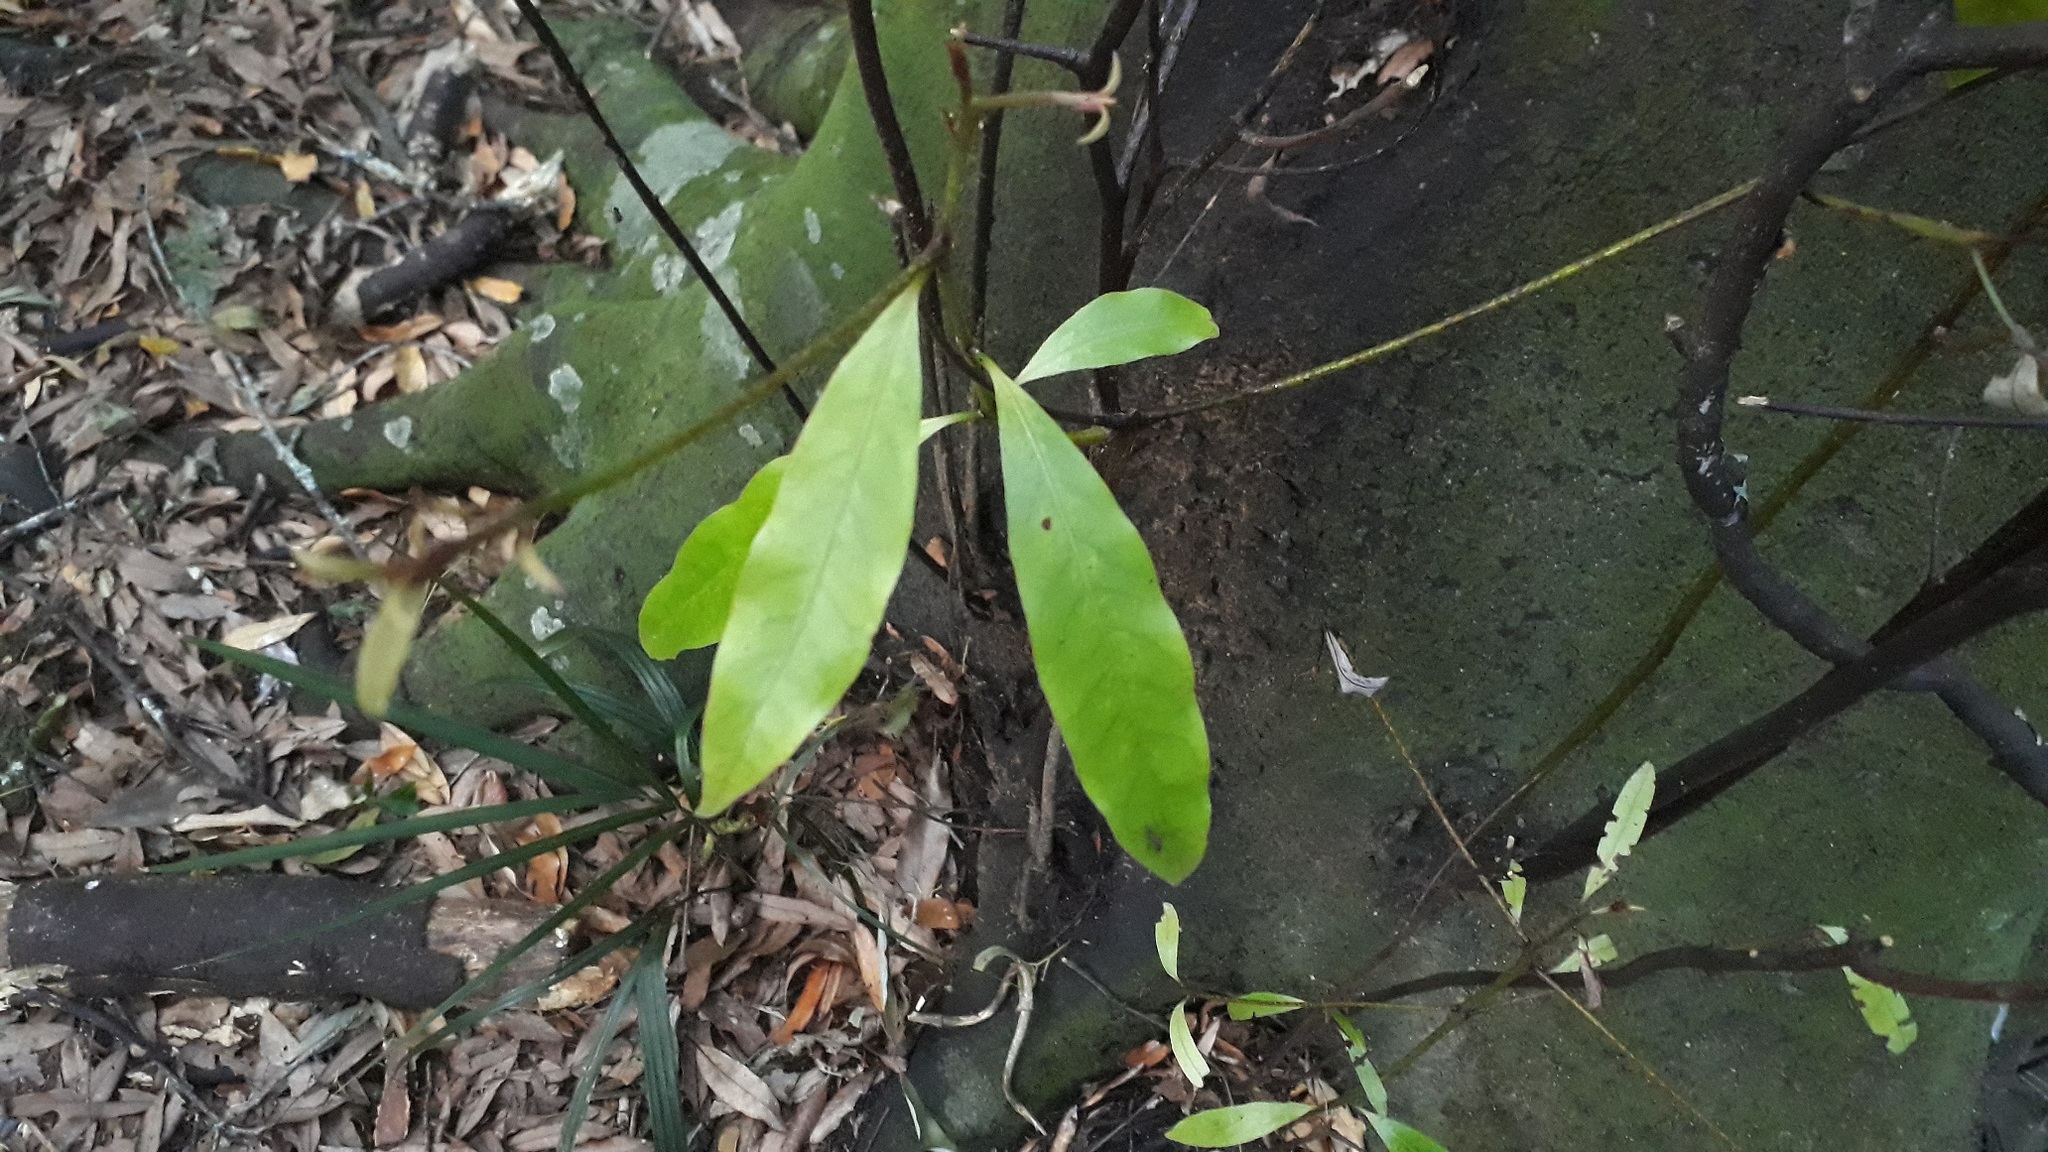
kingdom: Plantae
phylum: Tracheophyta
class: Magnoliopsida
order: Laurales
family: Lauraceae
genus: Beilschmiedia
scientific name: Beilschmiedia tawa
